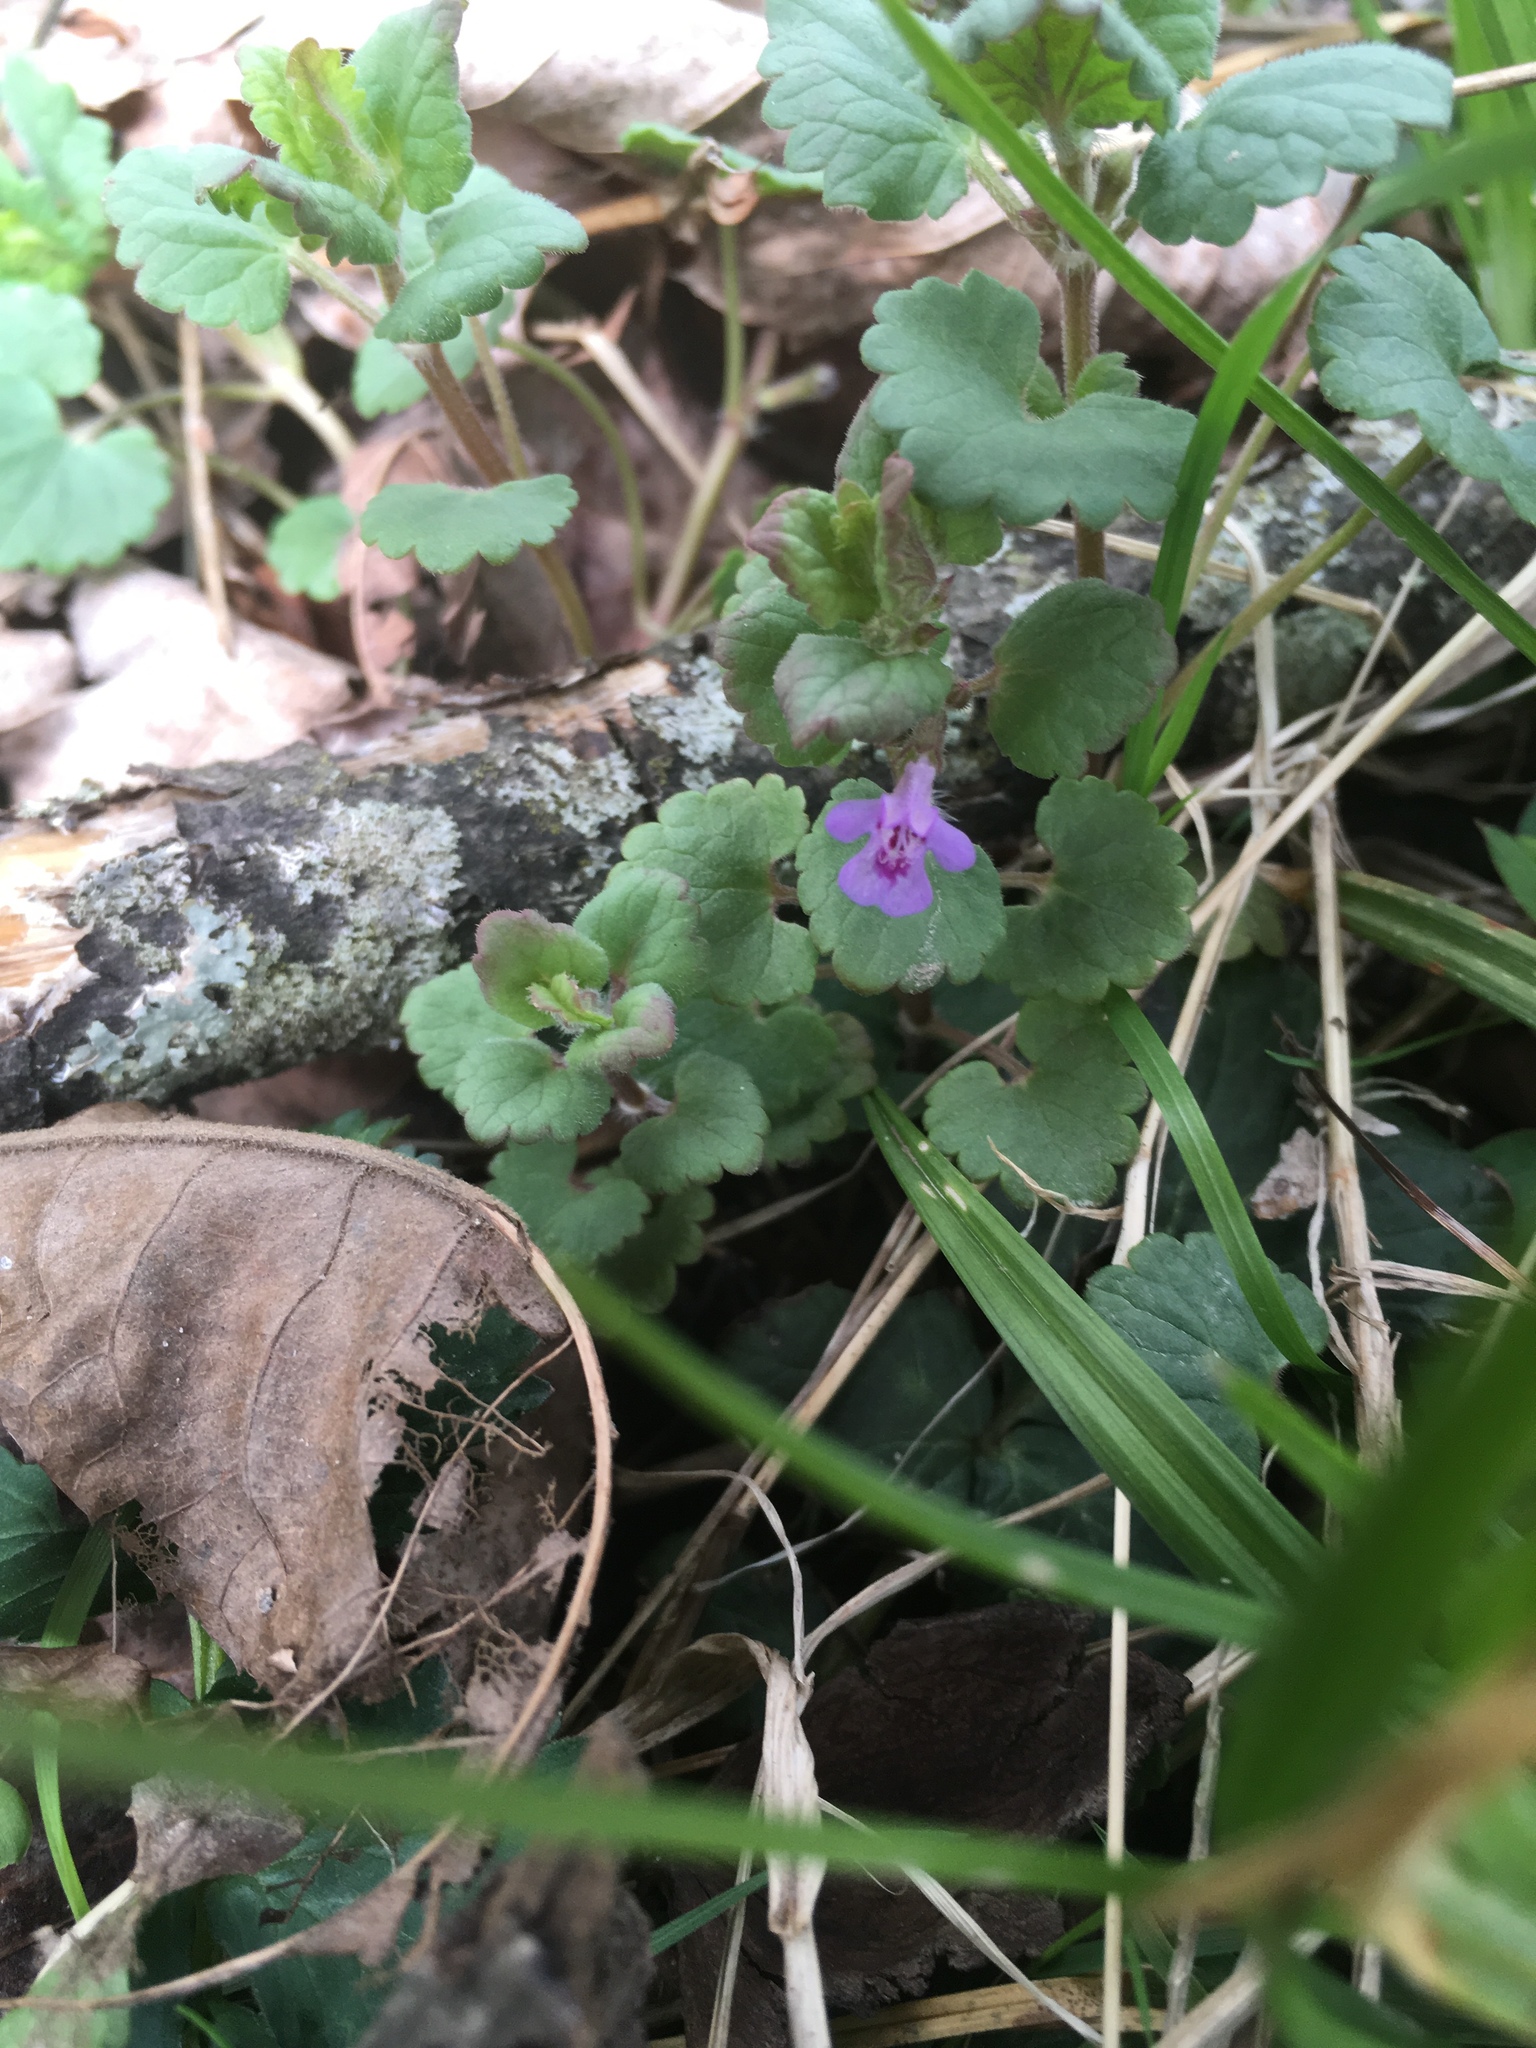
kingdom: Plantae
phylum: Tracheophyta
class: Magnoliopsida
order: Lamiales
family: Lamiaceae
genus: Glechoma
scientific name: Glechoma hederacea
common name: Ground ivy
